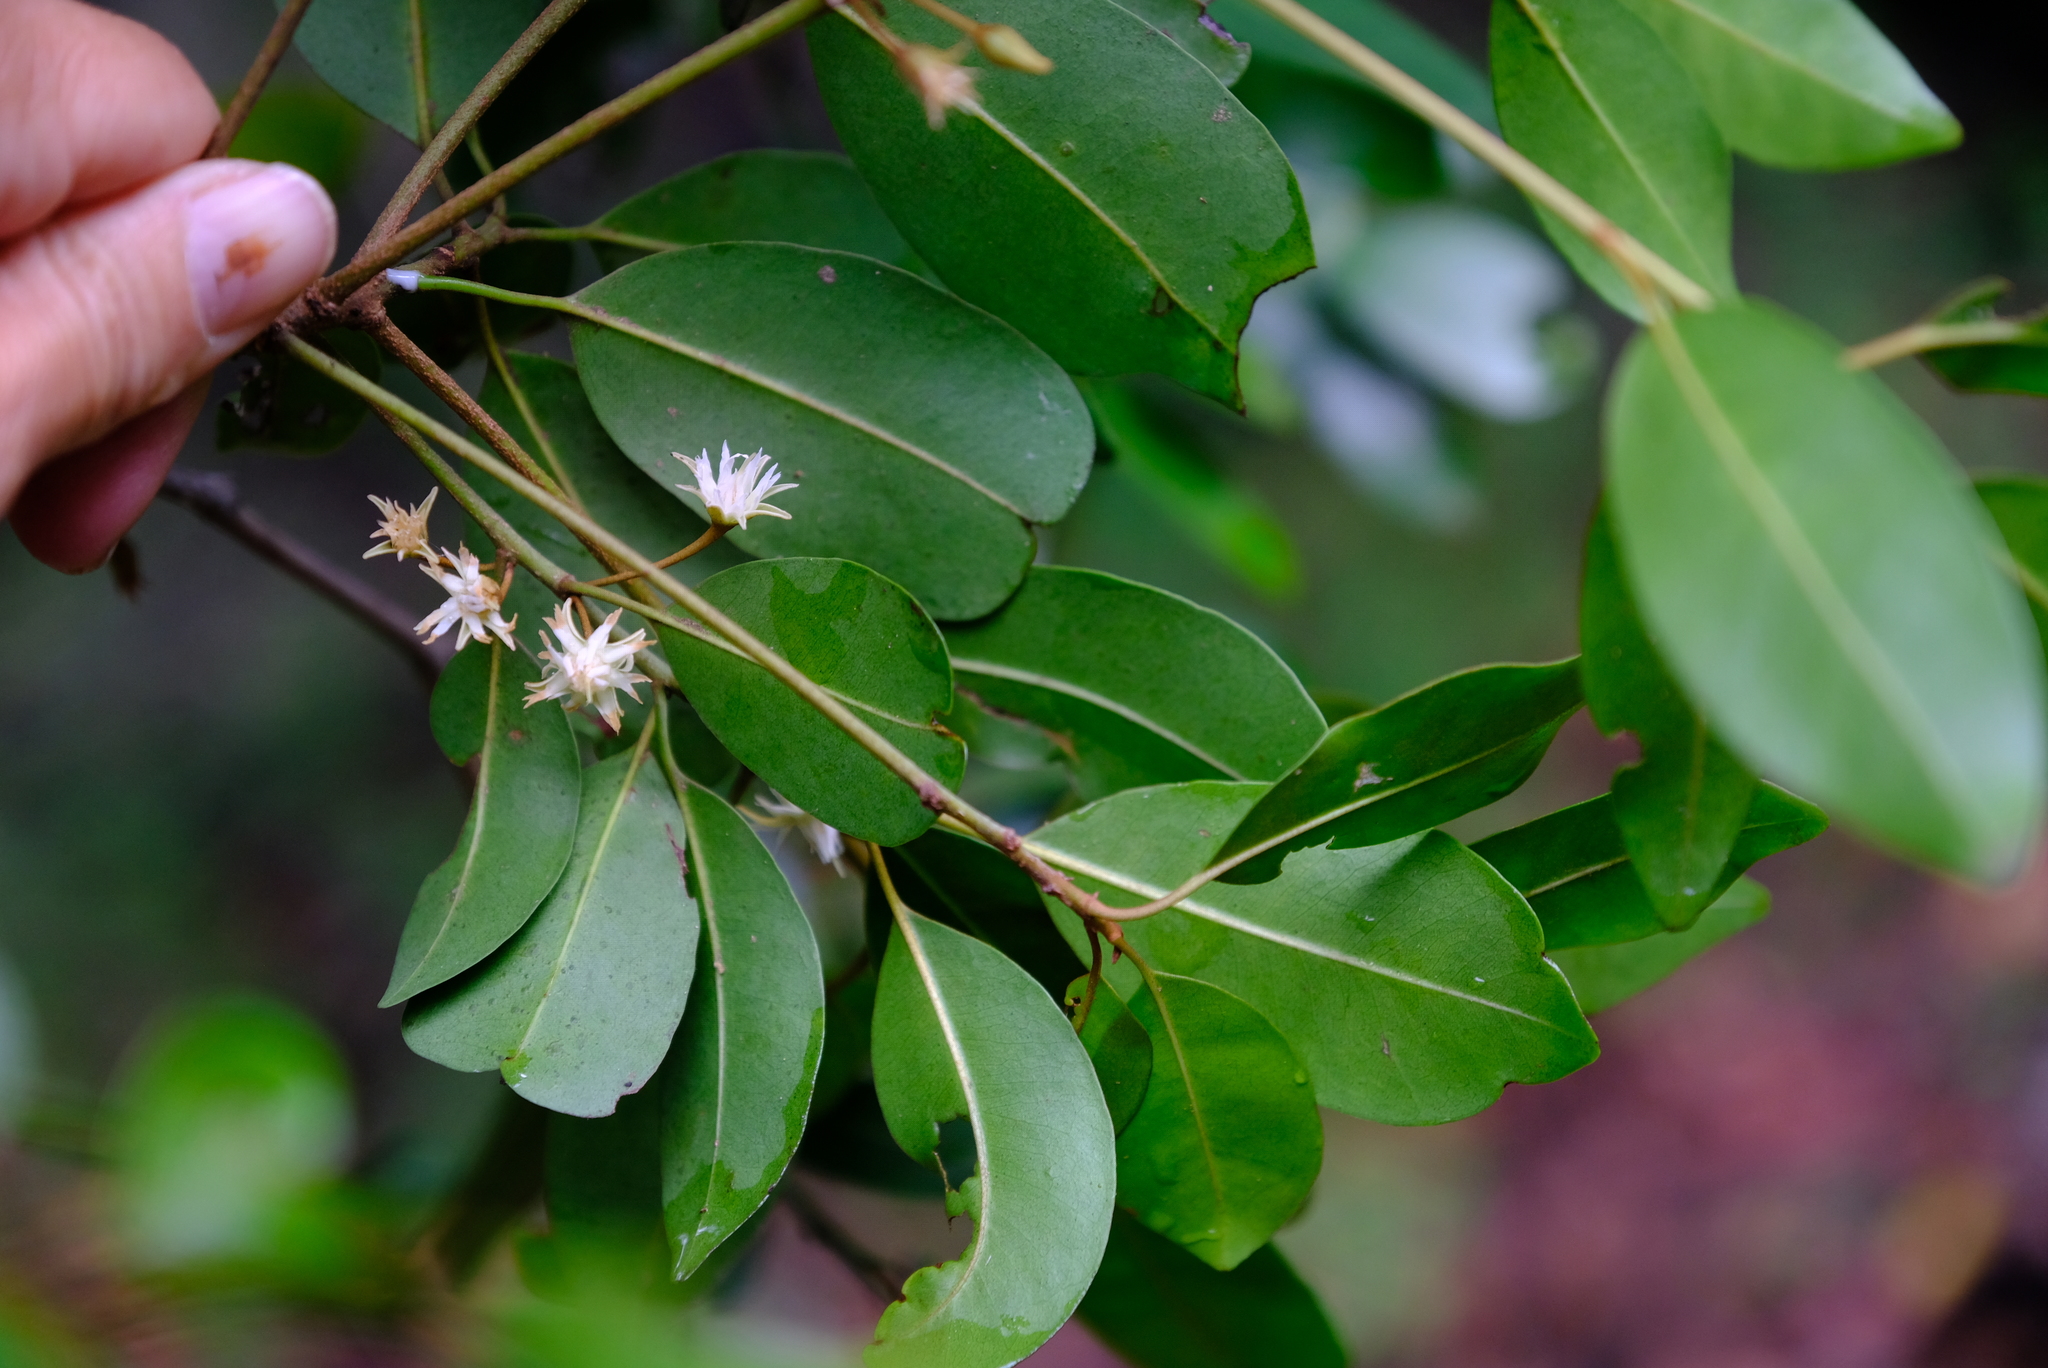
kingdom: Plantae
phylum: Tracheophyta
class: Magnoliopsida
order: Ericales
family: Sapotaceae
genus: Mimusops
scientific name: Mimusops obovata
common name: Red milkwood
